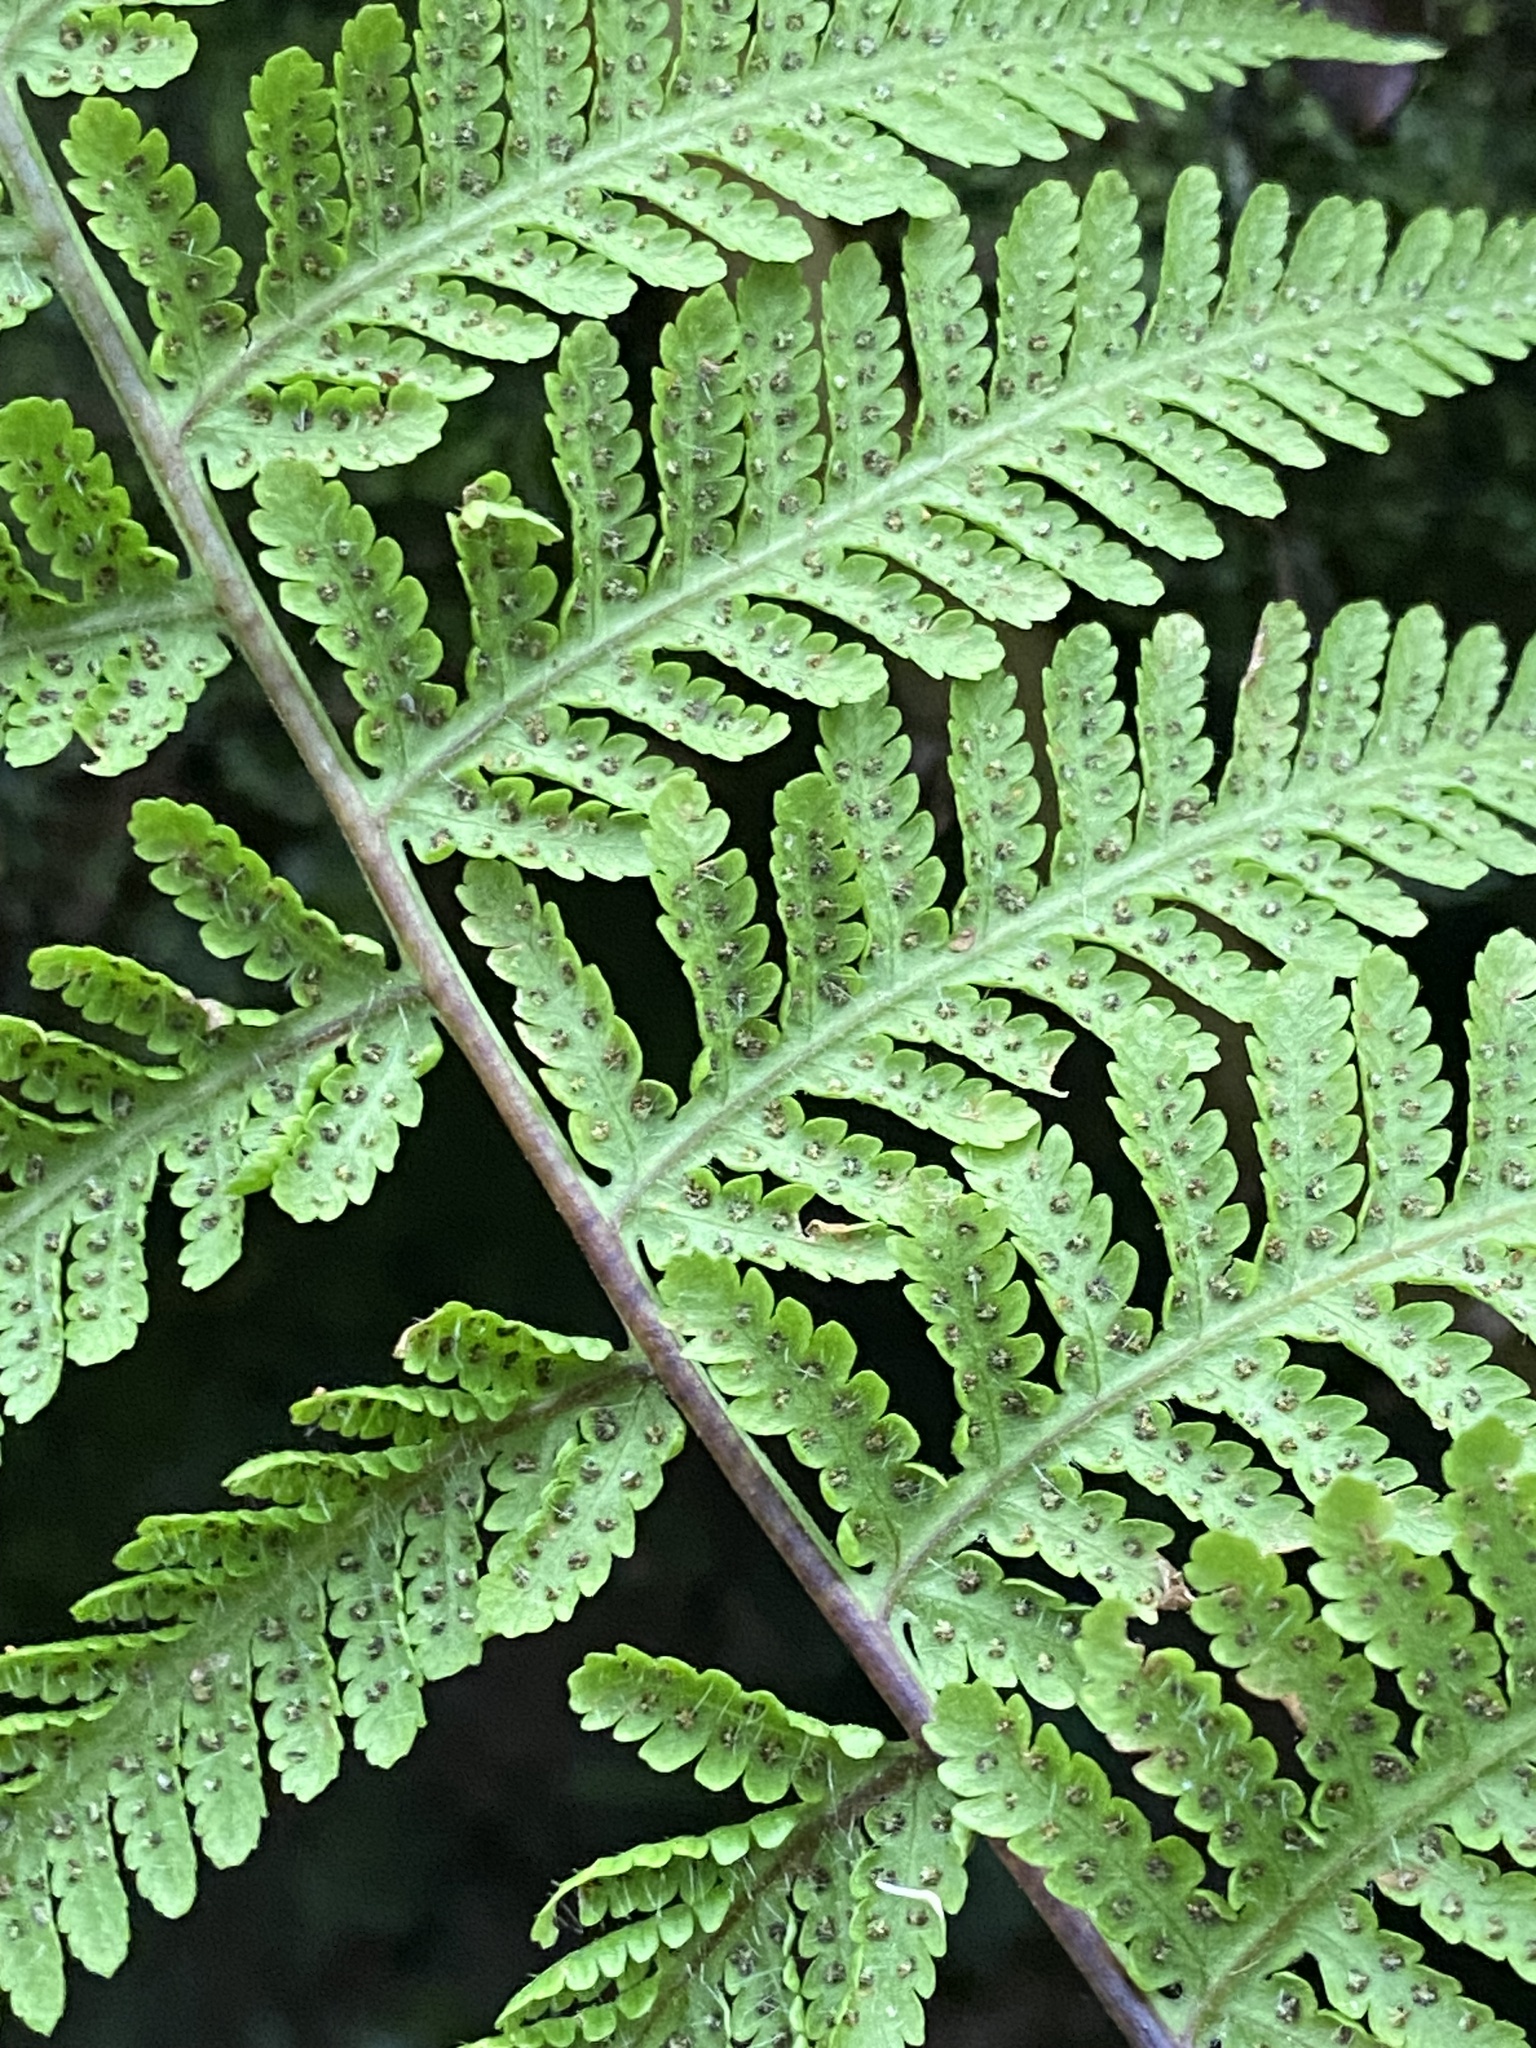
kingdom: Plantae
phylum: Tracheophyta
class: Polypodiopsida
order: Polypodiales
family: Thelypteridaceae
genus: Macrothelypteris
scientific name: Macrothelypteris torresiana
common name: Swordfern
